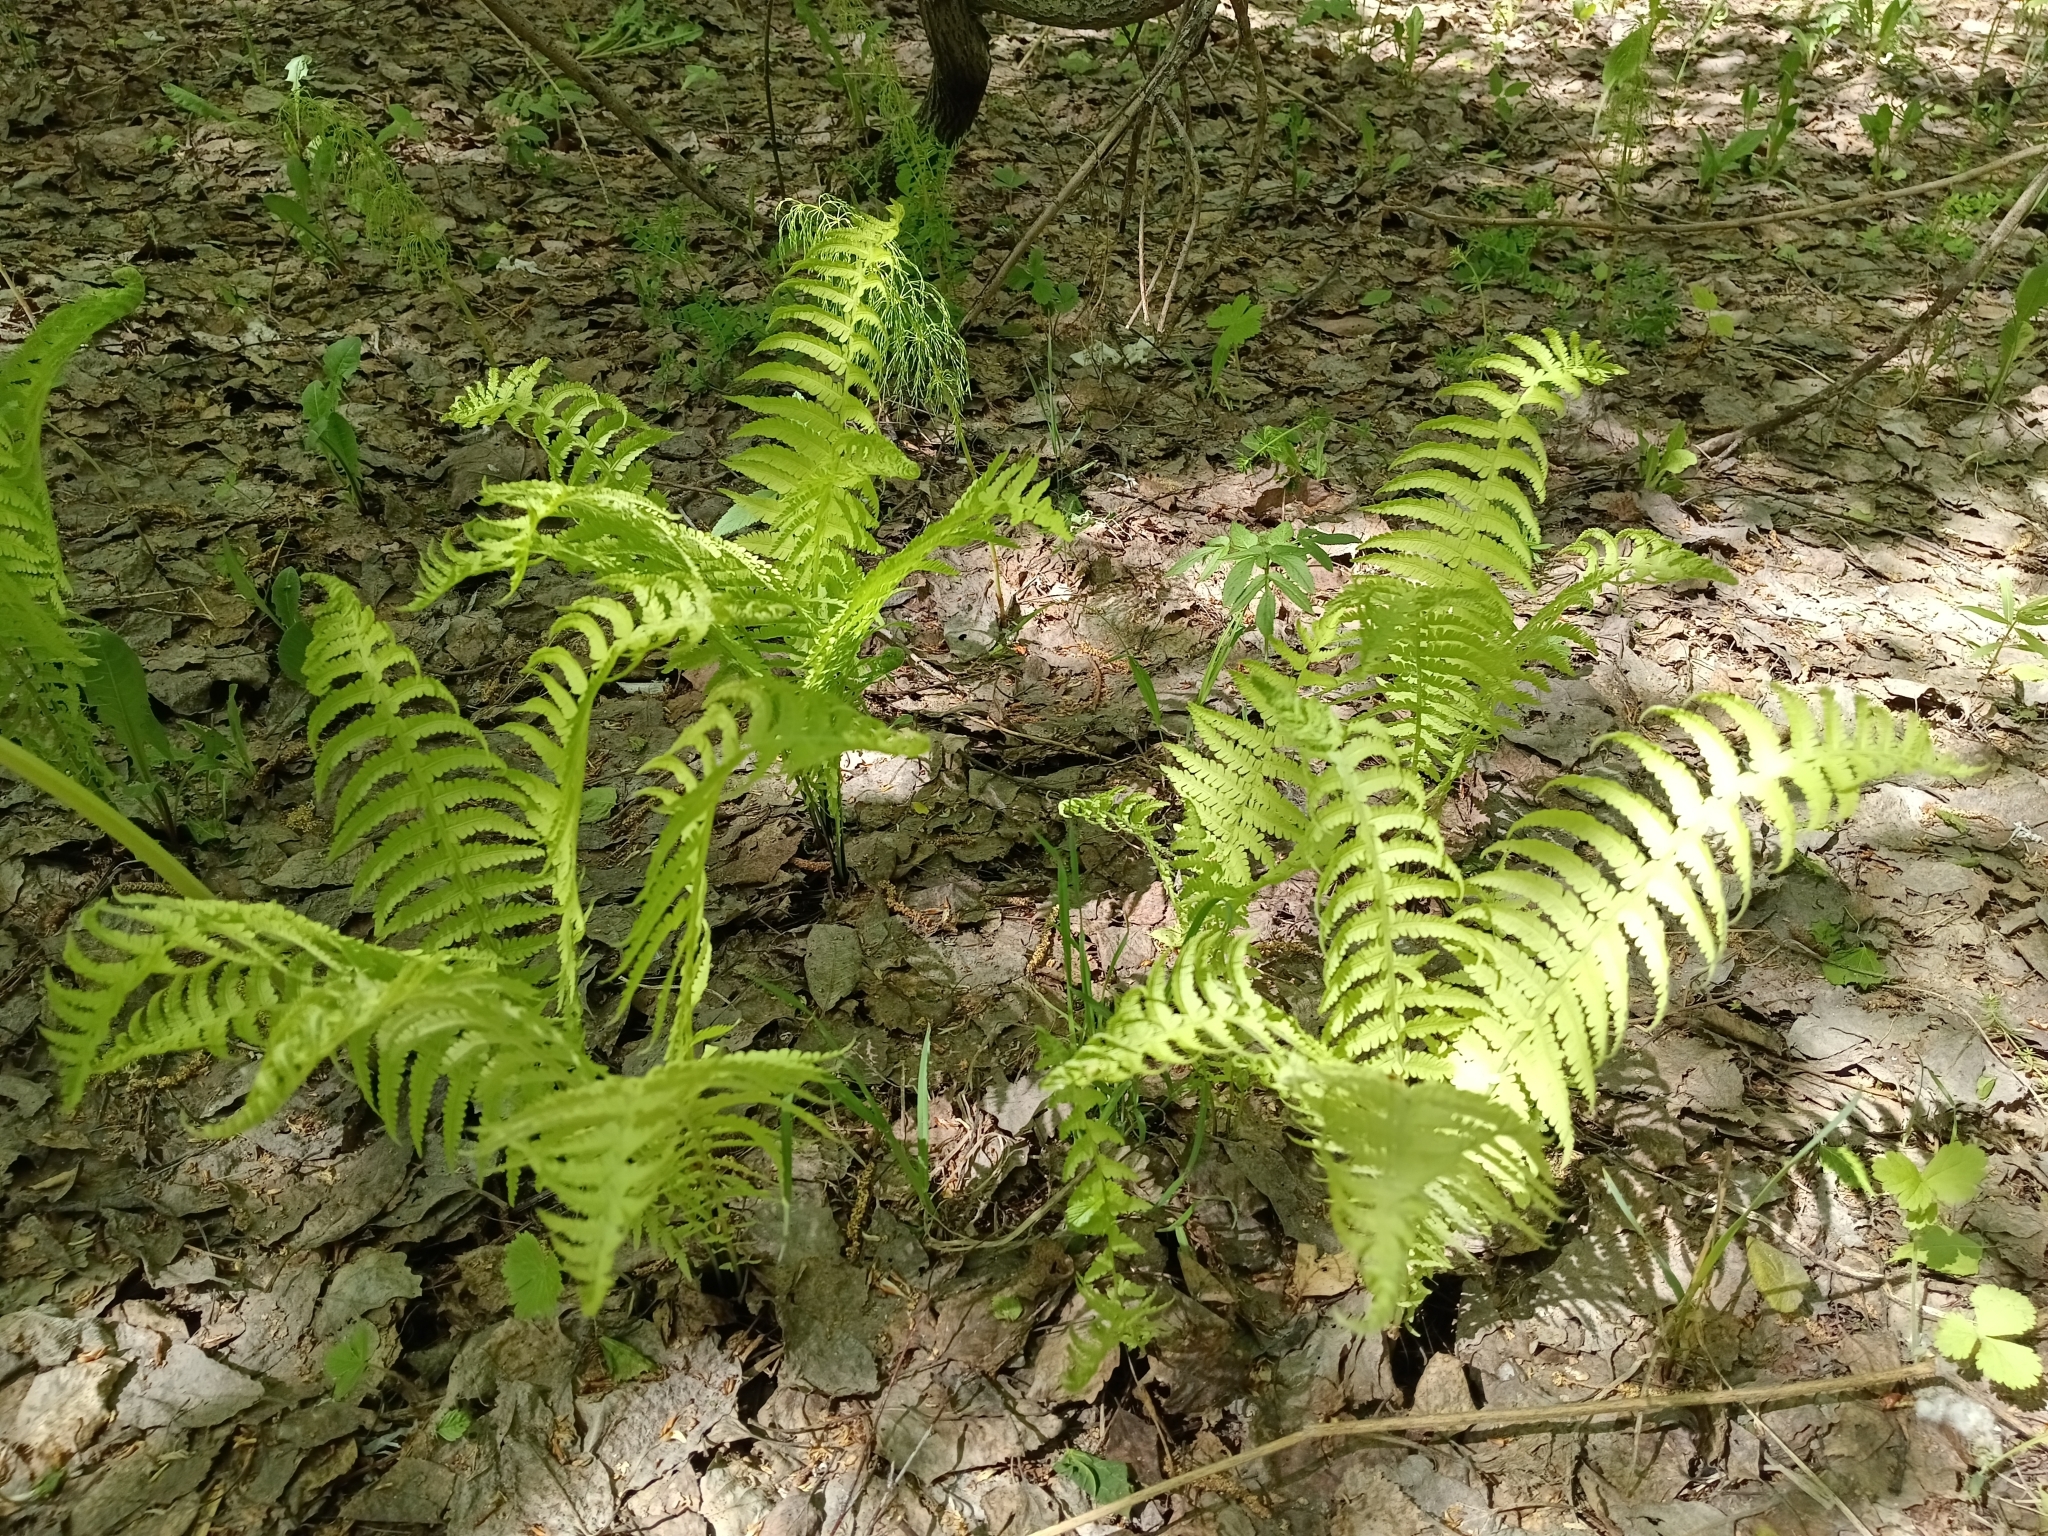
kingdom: Plantae
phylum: Tracheophyta
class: Polypodiopsida
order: Polypodiales
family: Onocleaceae
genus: Matteuccia
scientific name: Matteuccia struthiopteris
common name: Ostrich fern
